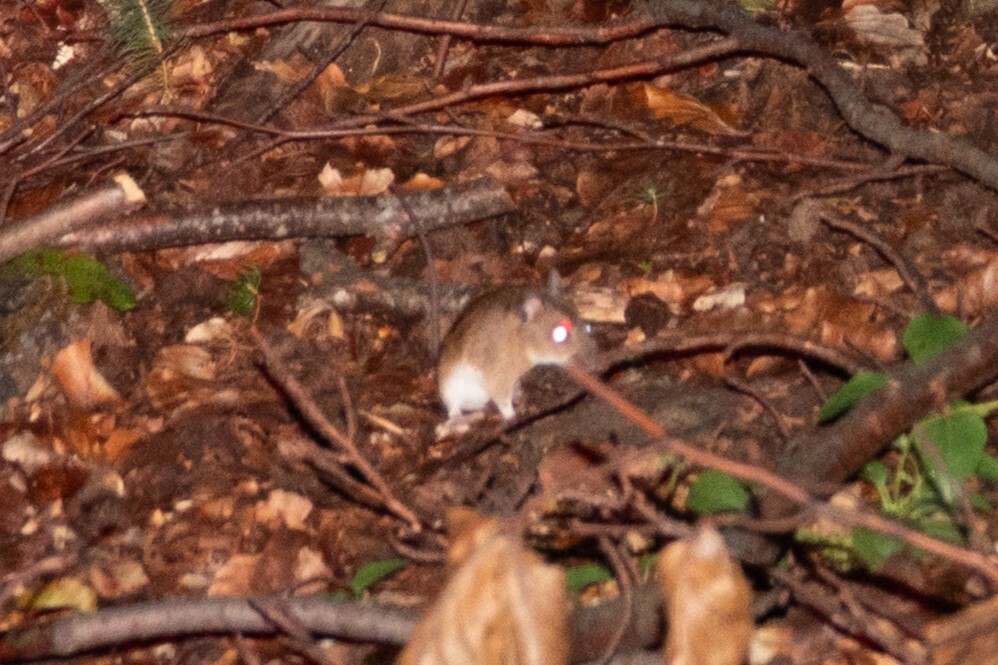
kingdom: Animalia
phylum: Chordata
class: Mammalia
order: Rodentia
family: Muridae
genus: Apodemus
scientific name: Apodemus agrarius
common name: Striped field mouse
